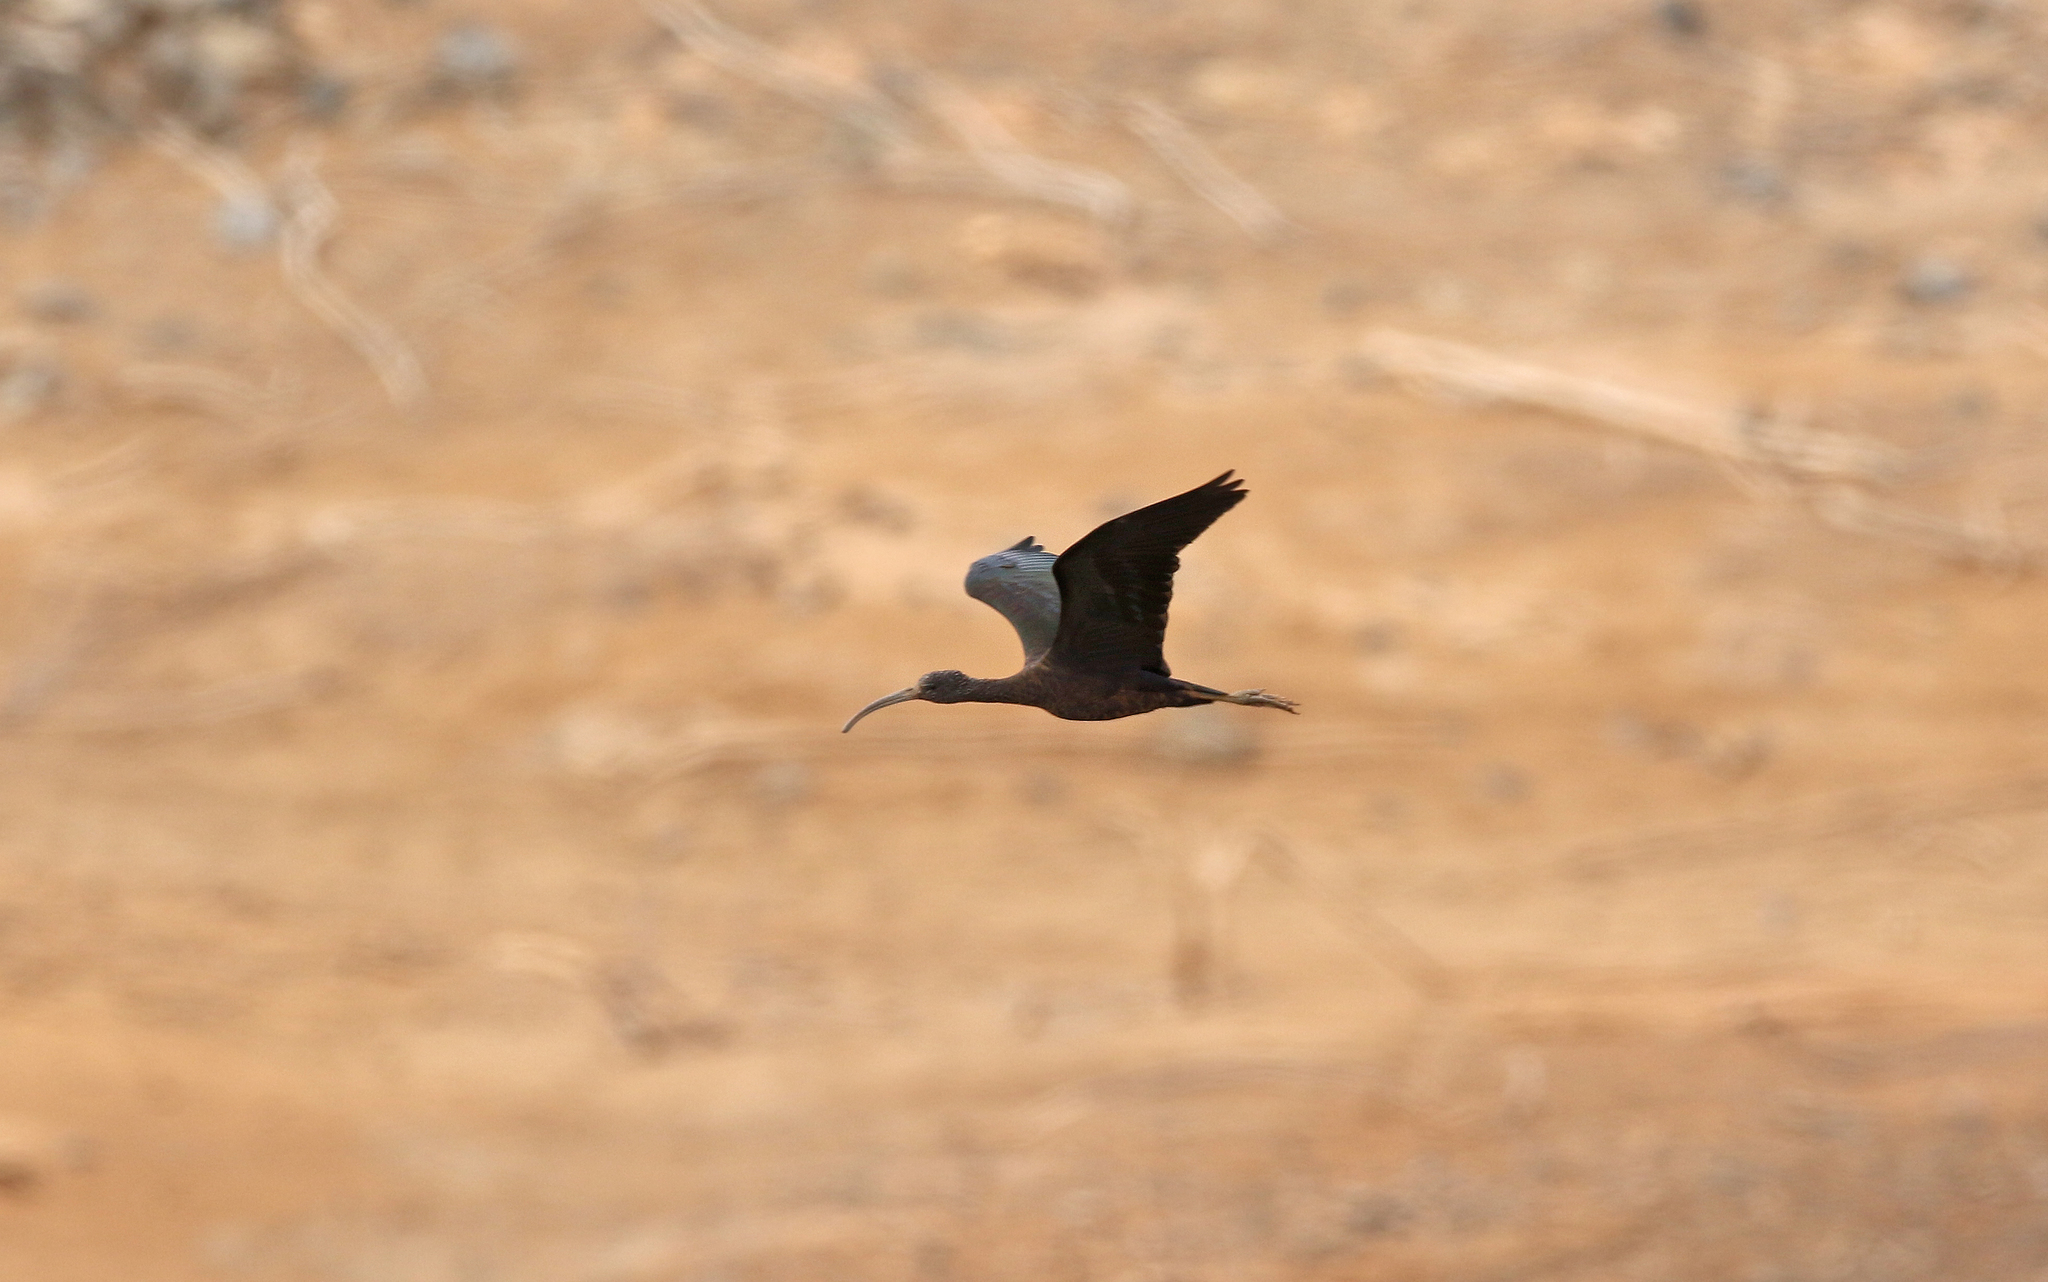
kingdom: Animalia
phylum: Chordata
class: Aves
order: Pelecaniformes
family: Threskiornithidae
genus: Plegadis
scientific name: Plegadis falcinellus
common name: Glossy ibis
